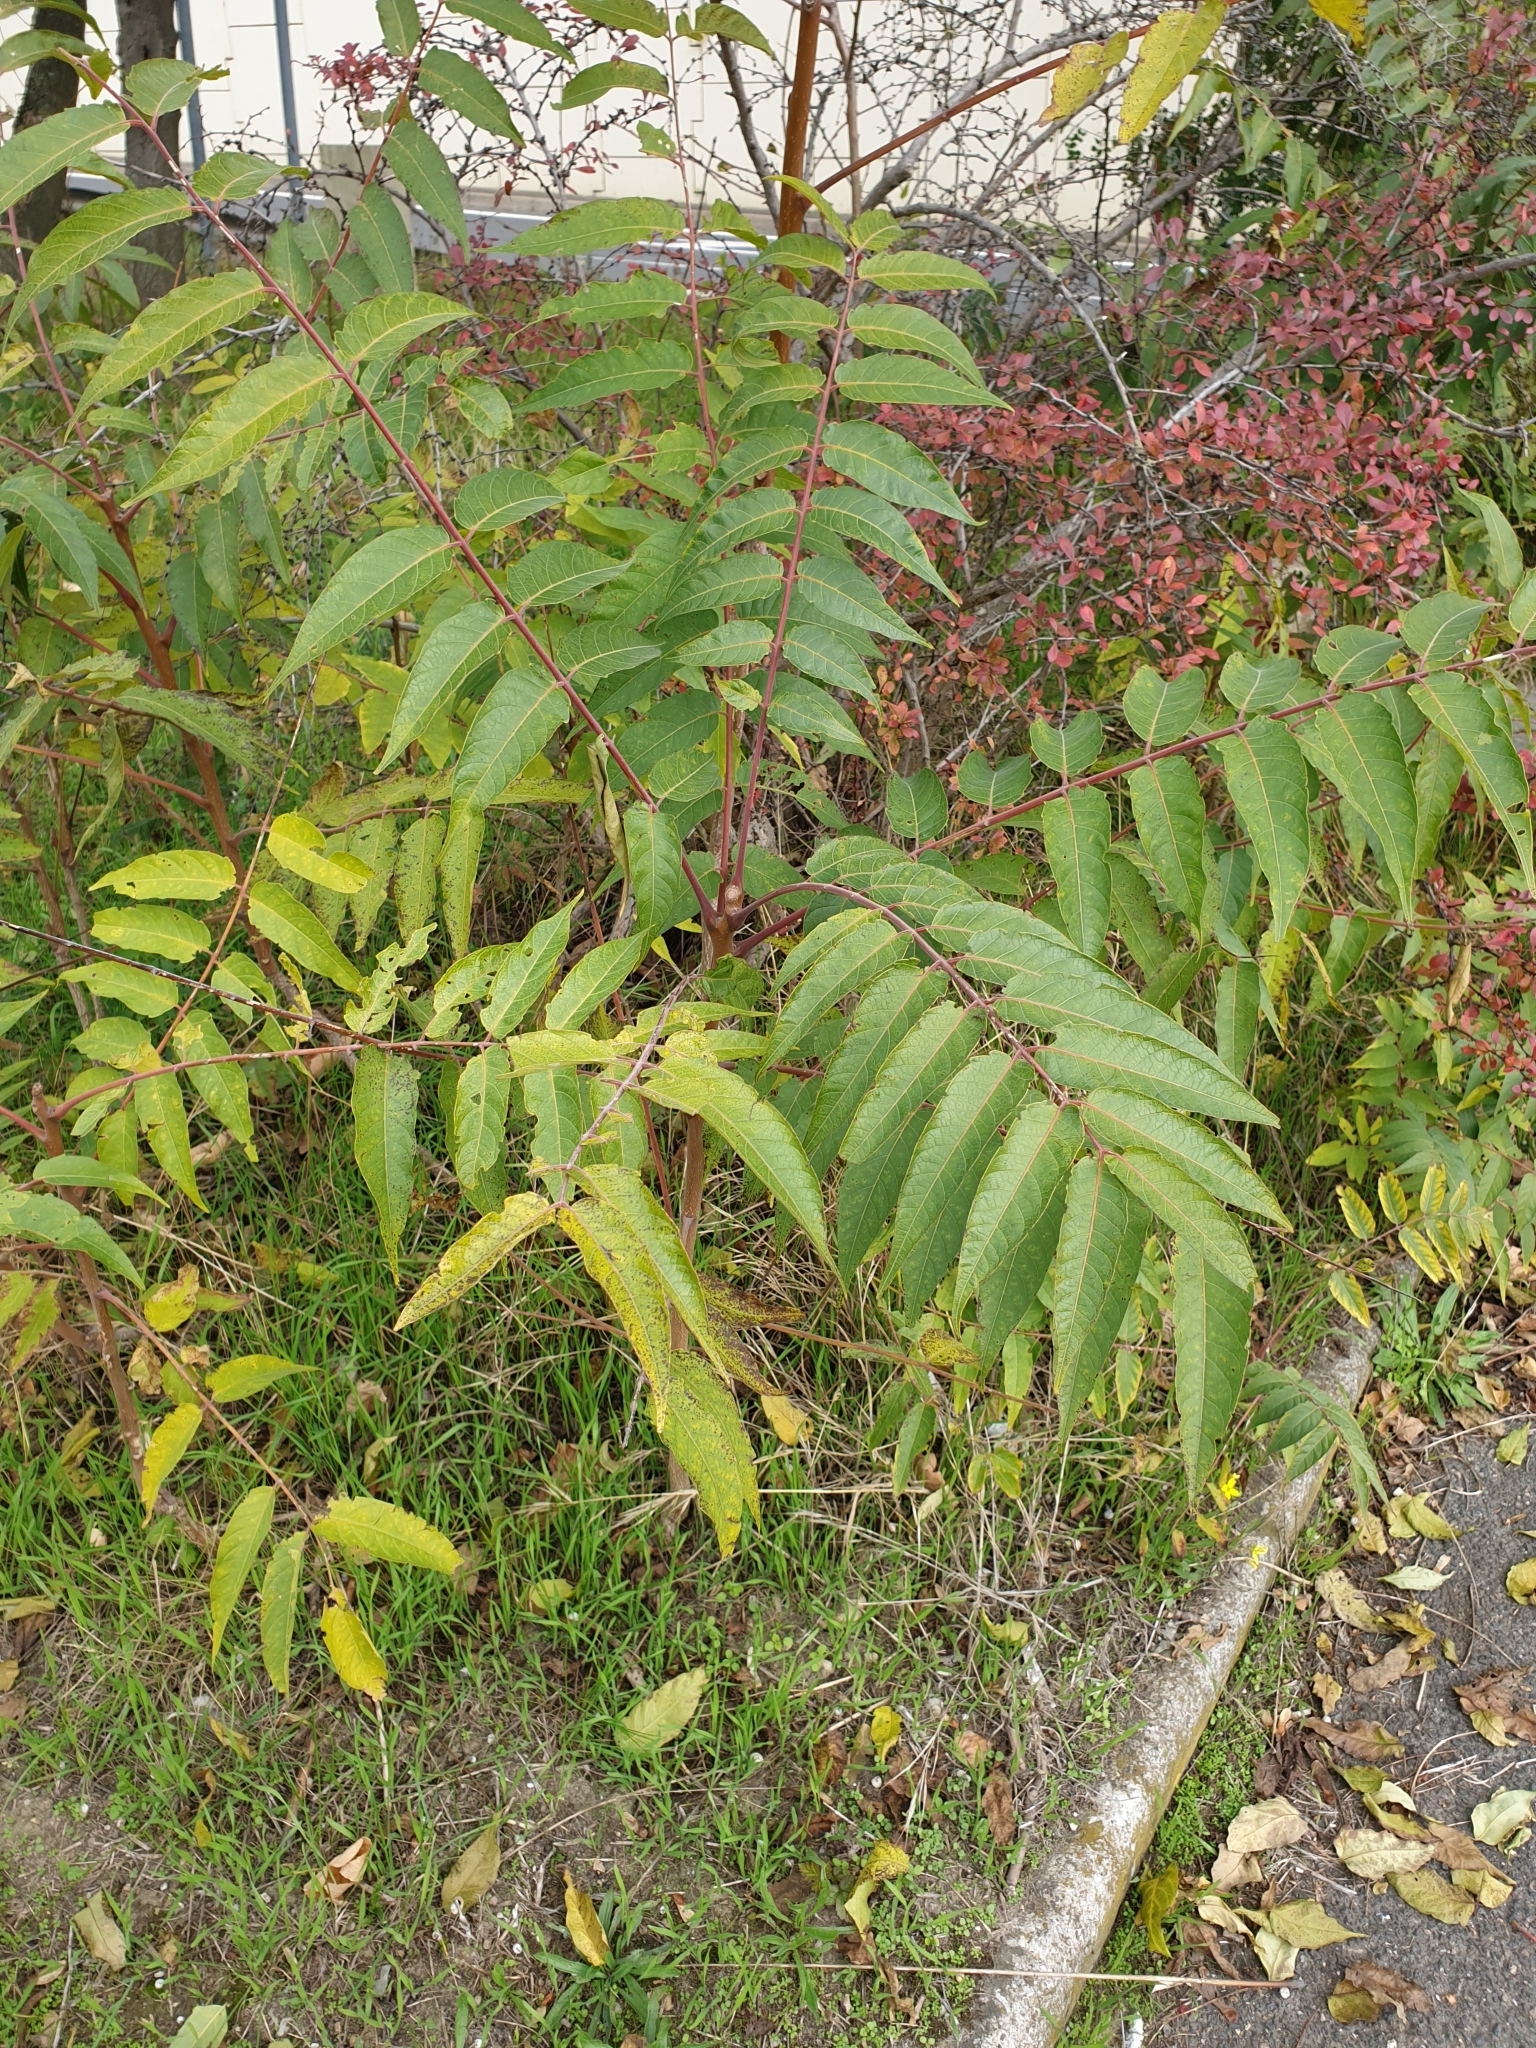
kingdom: Plantae
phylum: Tracheophyta
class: Magnoliopsida
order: Sapindales
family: Simaroubaceae
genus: Ailanthus
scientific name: Ailanthus altissima
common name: Tree-of-heaven
